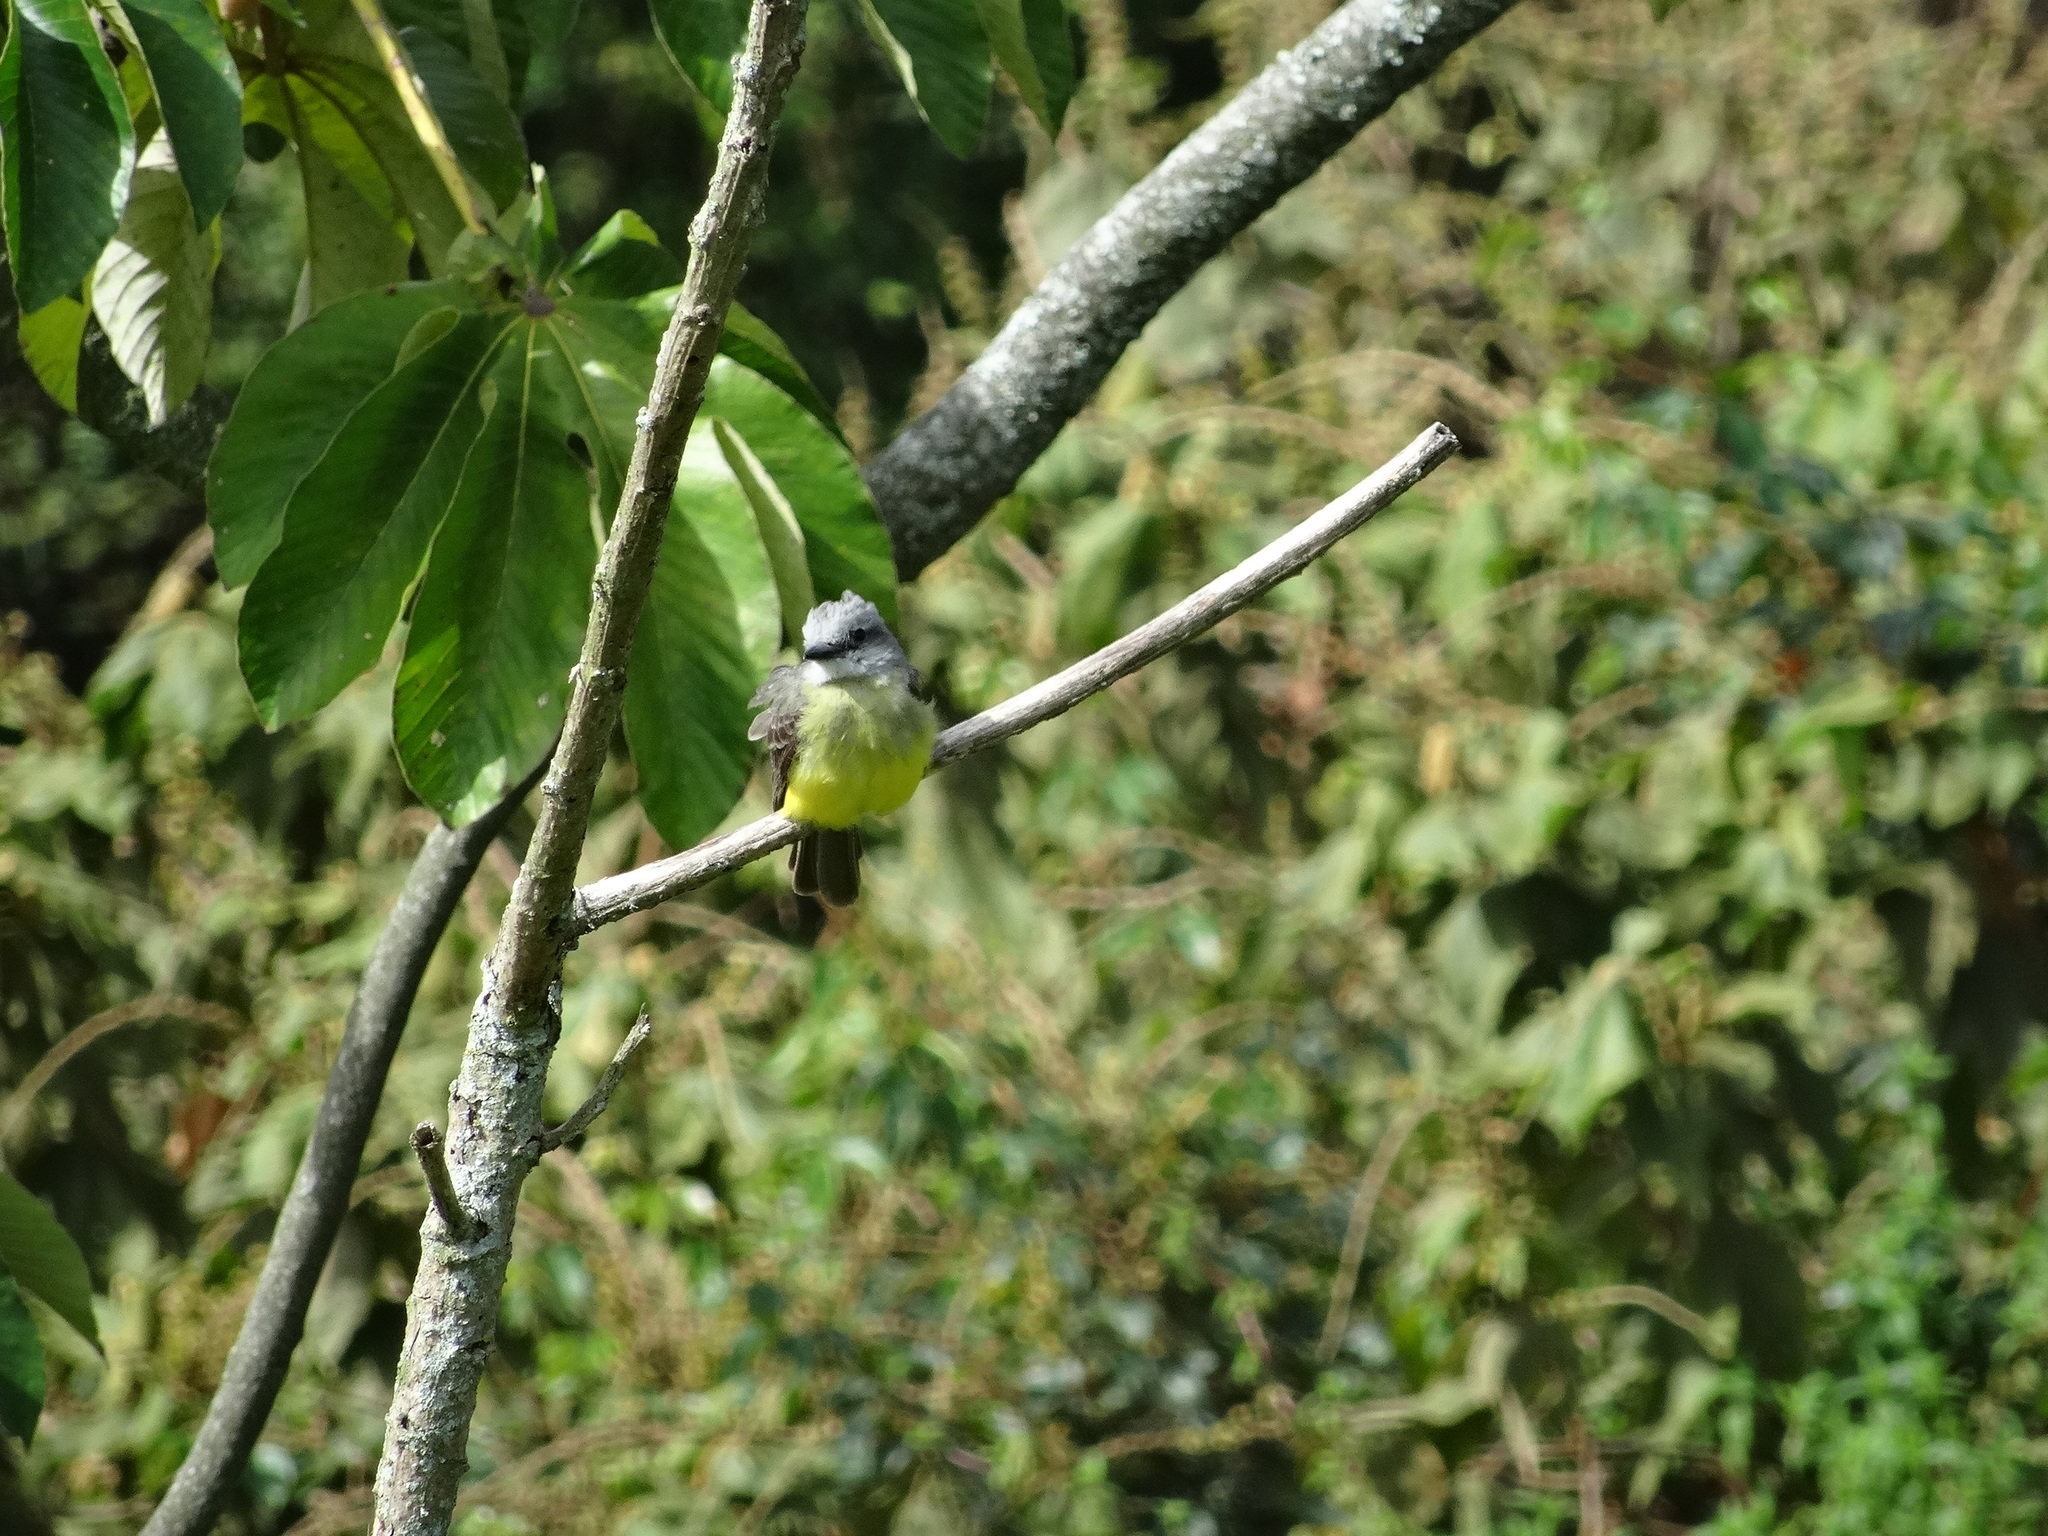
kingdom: Animalia
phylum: Chordata
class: Aves
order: Passeriformes
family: Tyrannidae
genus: Tyrannus
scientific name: Tyrannus melancholicus
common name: Tropical kingbird
